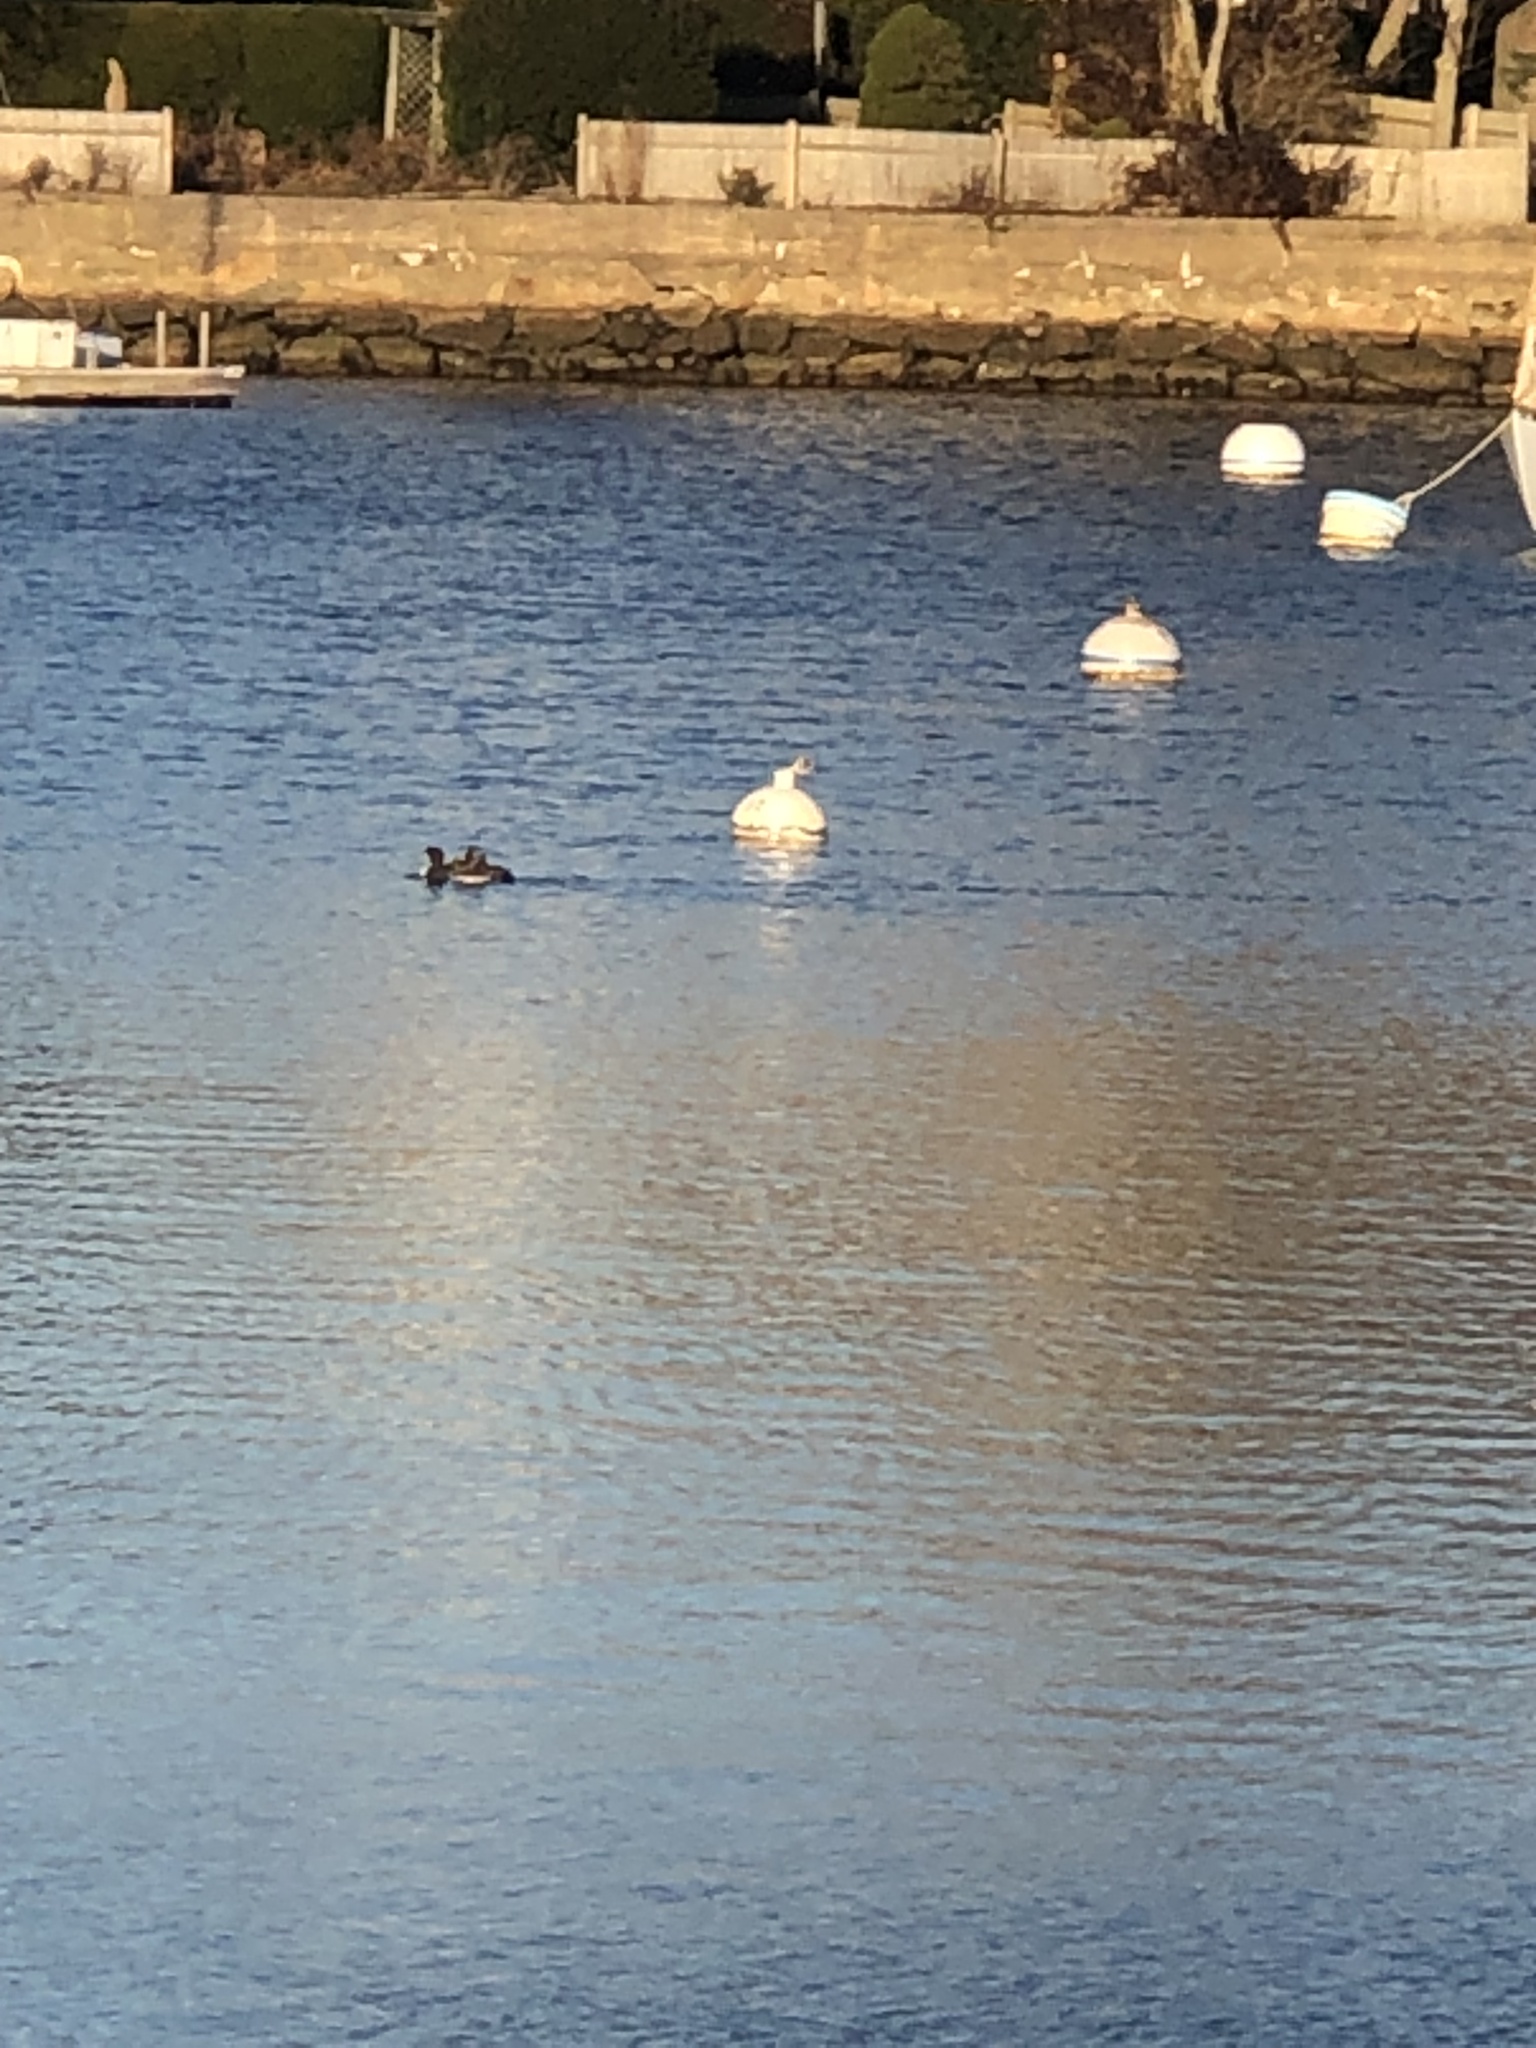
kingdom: Animalia
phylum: Chordata
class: Aves
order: Gaviiformes
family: Gaviidae
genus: Gavia
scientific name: Gavia immer
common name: Common loon
